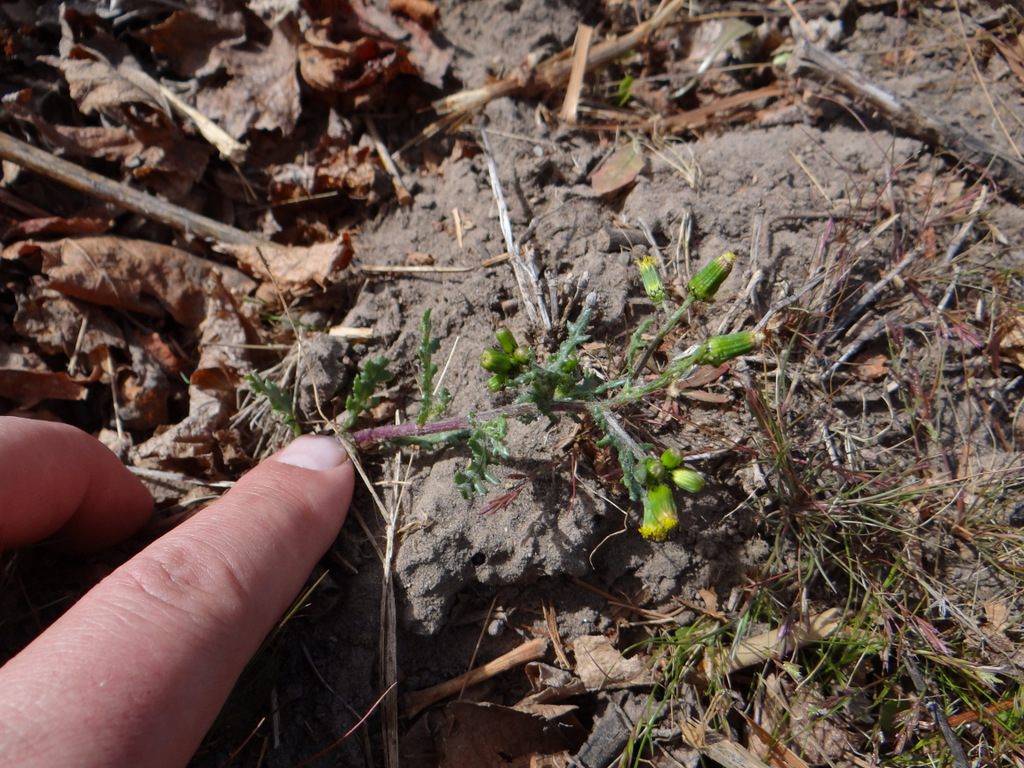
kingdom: Plantae
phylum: Tracheophyta
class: Magnoliopsida
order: Asterales
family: Asteraceae
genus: Senecio
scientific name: Senecio vulgaris
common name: Old-man-in-the-spring
